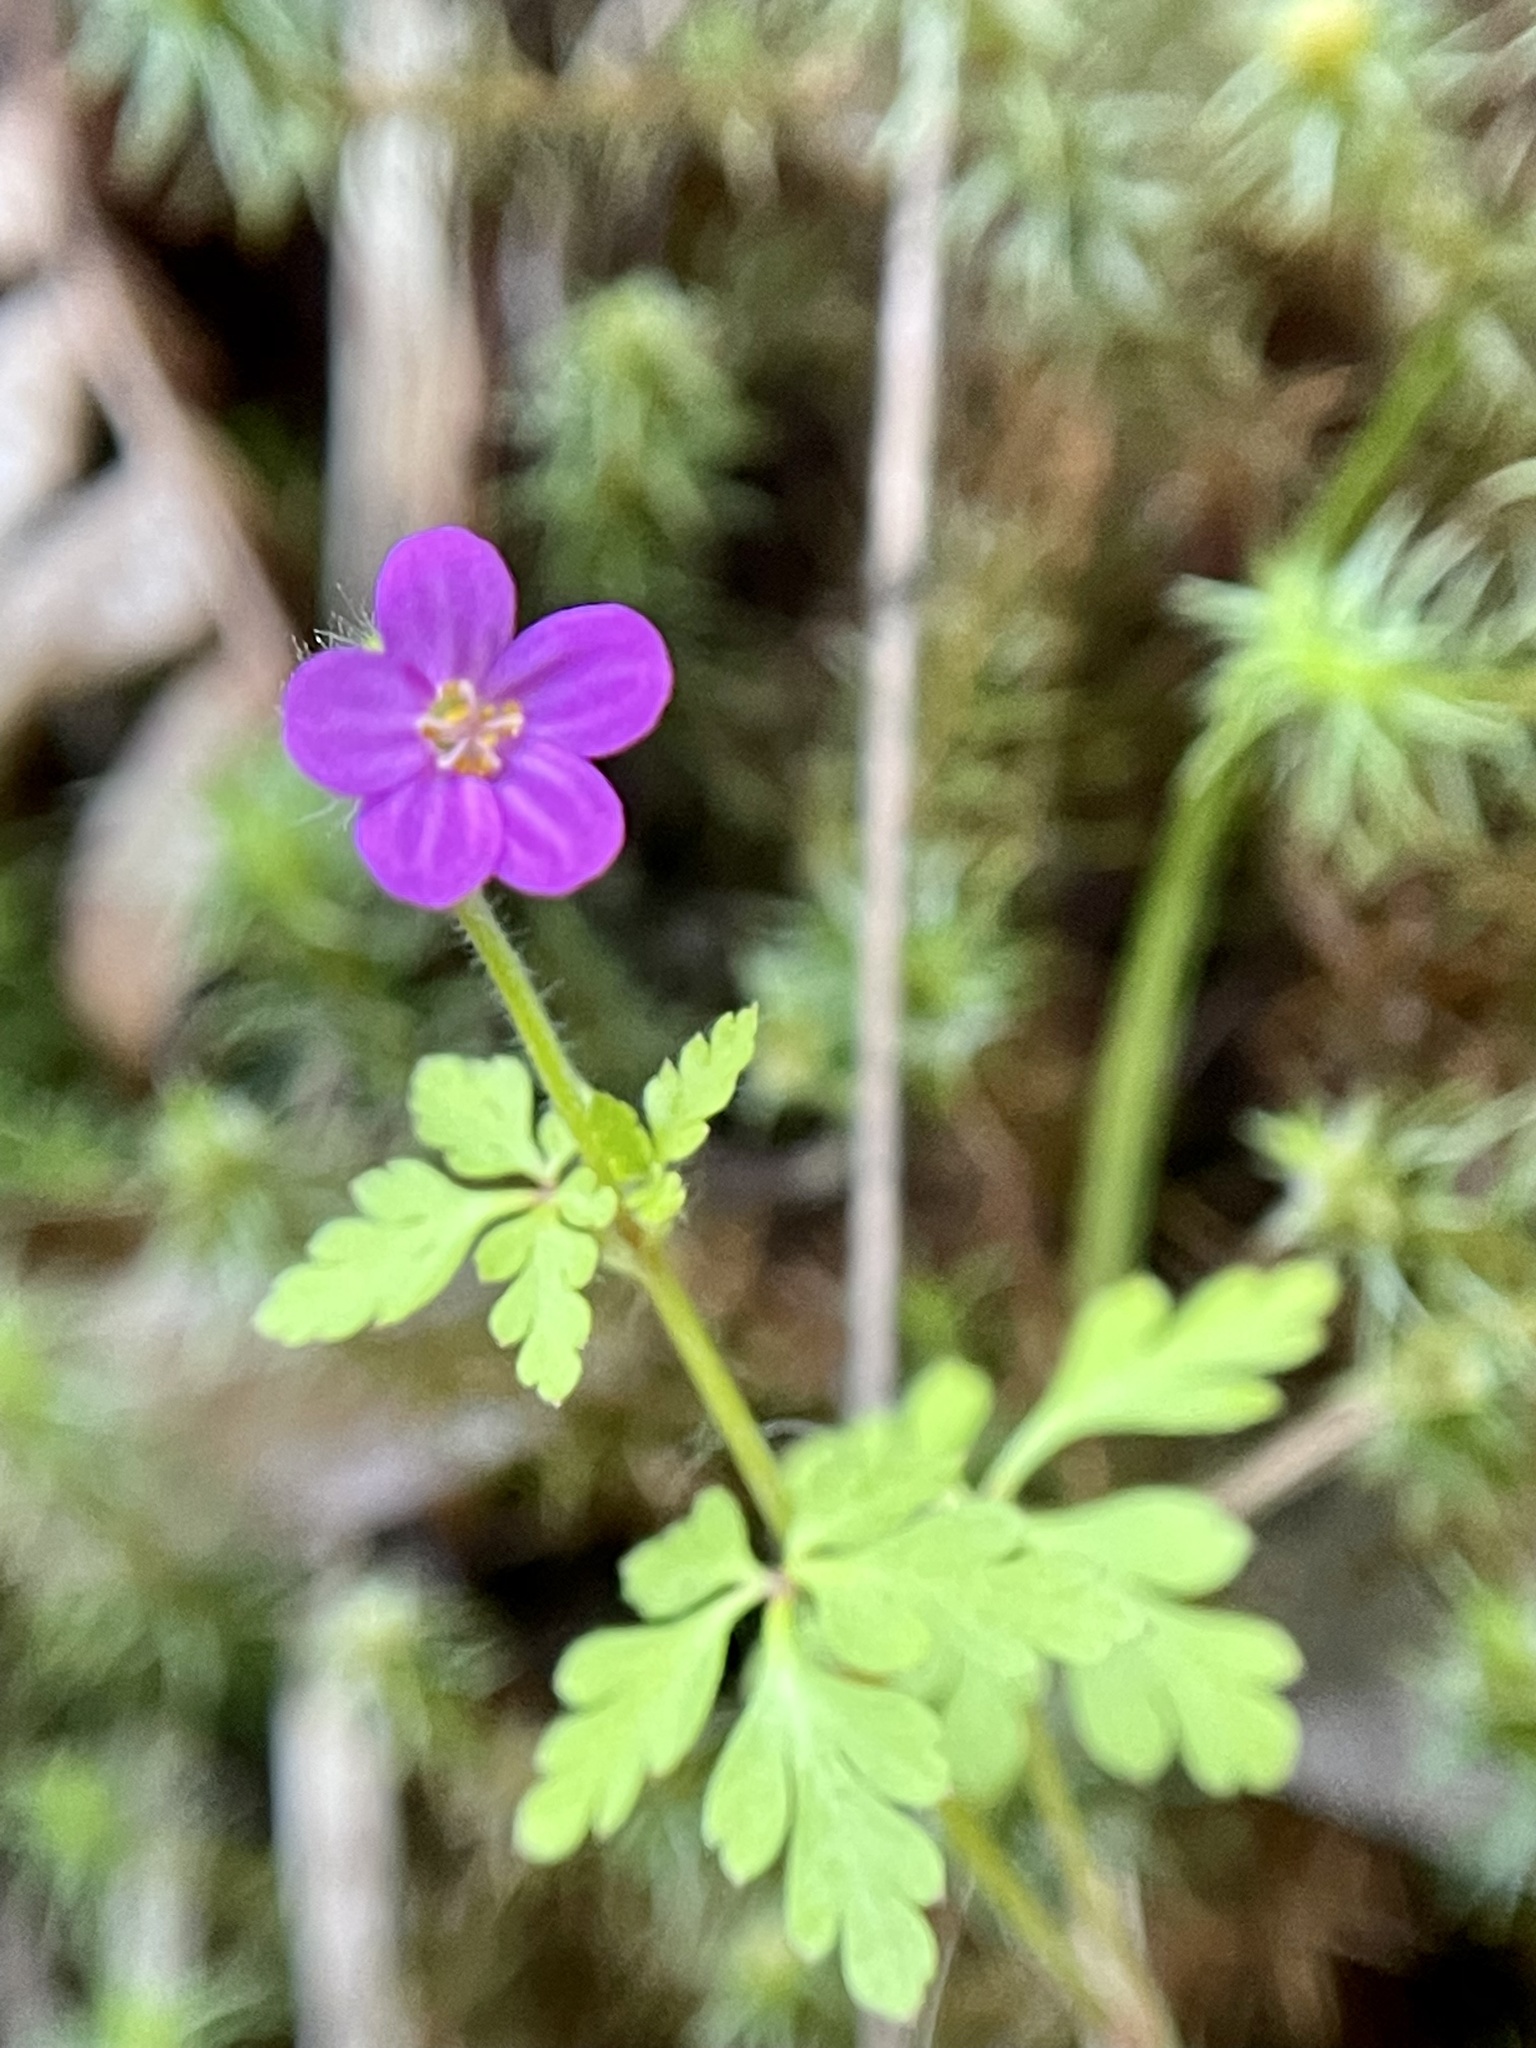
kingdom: Plantae
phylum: Tracheophyta
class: Magnoliopsida
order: Geraniales
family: Geraniaceae
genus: Geranium
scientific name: Geranium purpureum
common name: Little-robin
